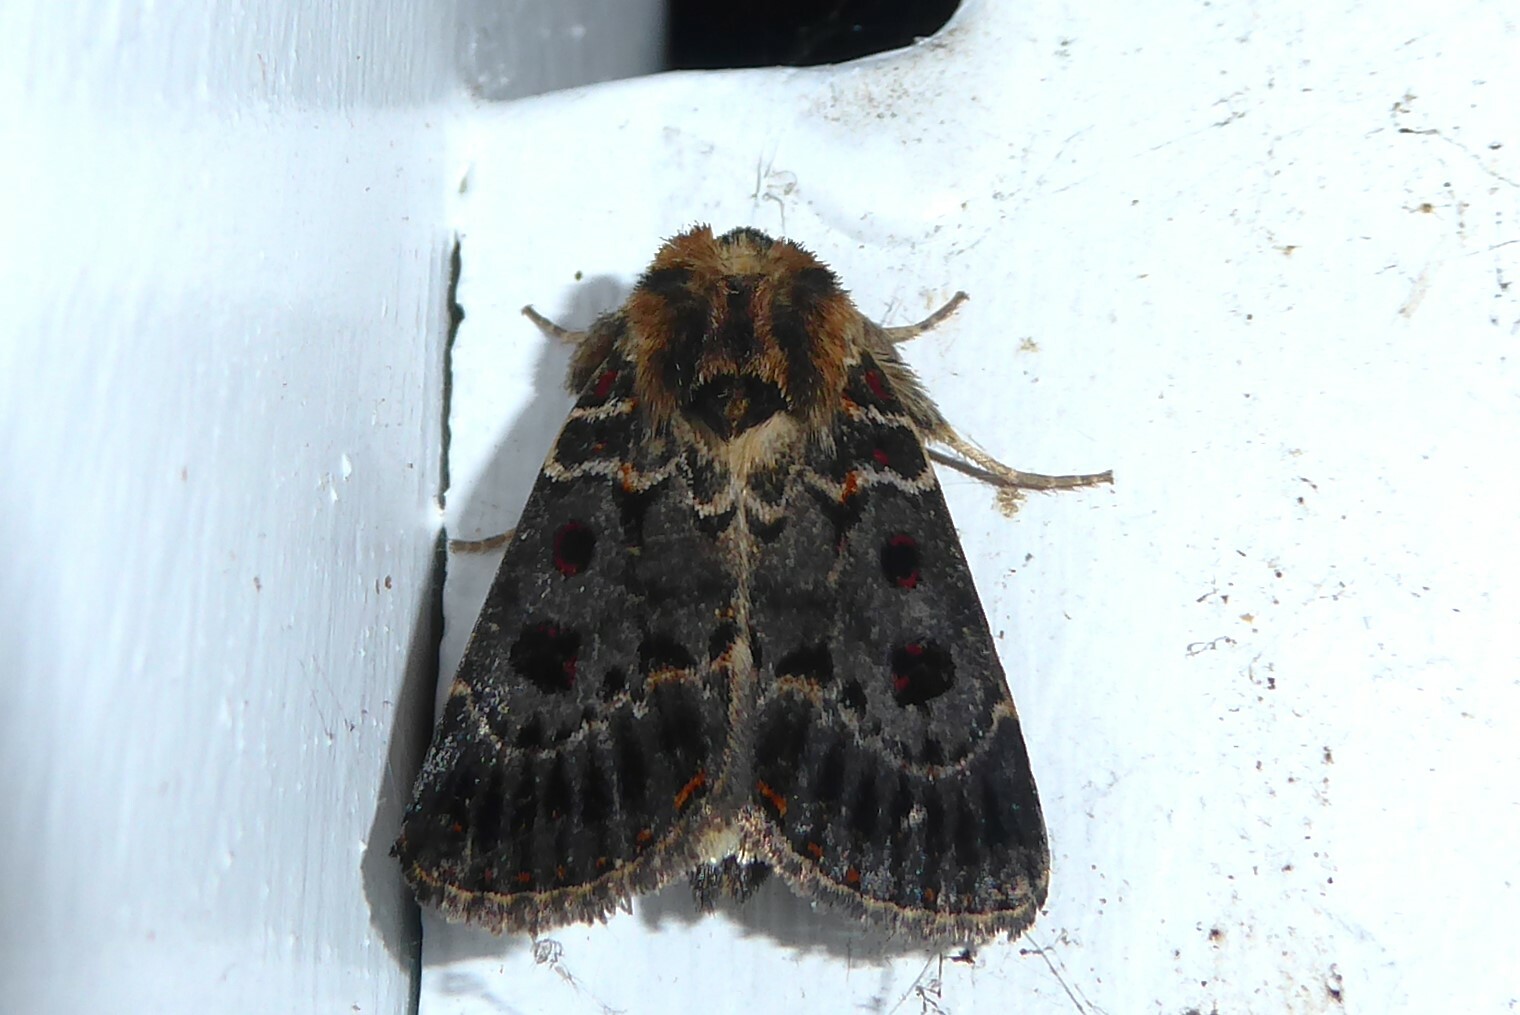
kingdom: Animalia
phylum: Arthropoda
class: Insecta
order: Lepidoptera
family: Noctuidae
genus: Proteuxoa
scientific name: Proteuxoa sanguinipuncta
